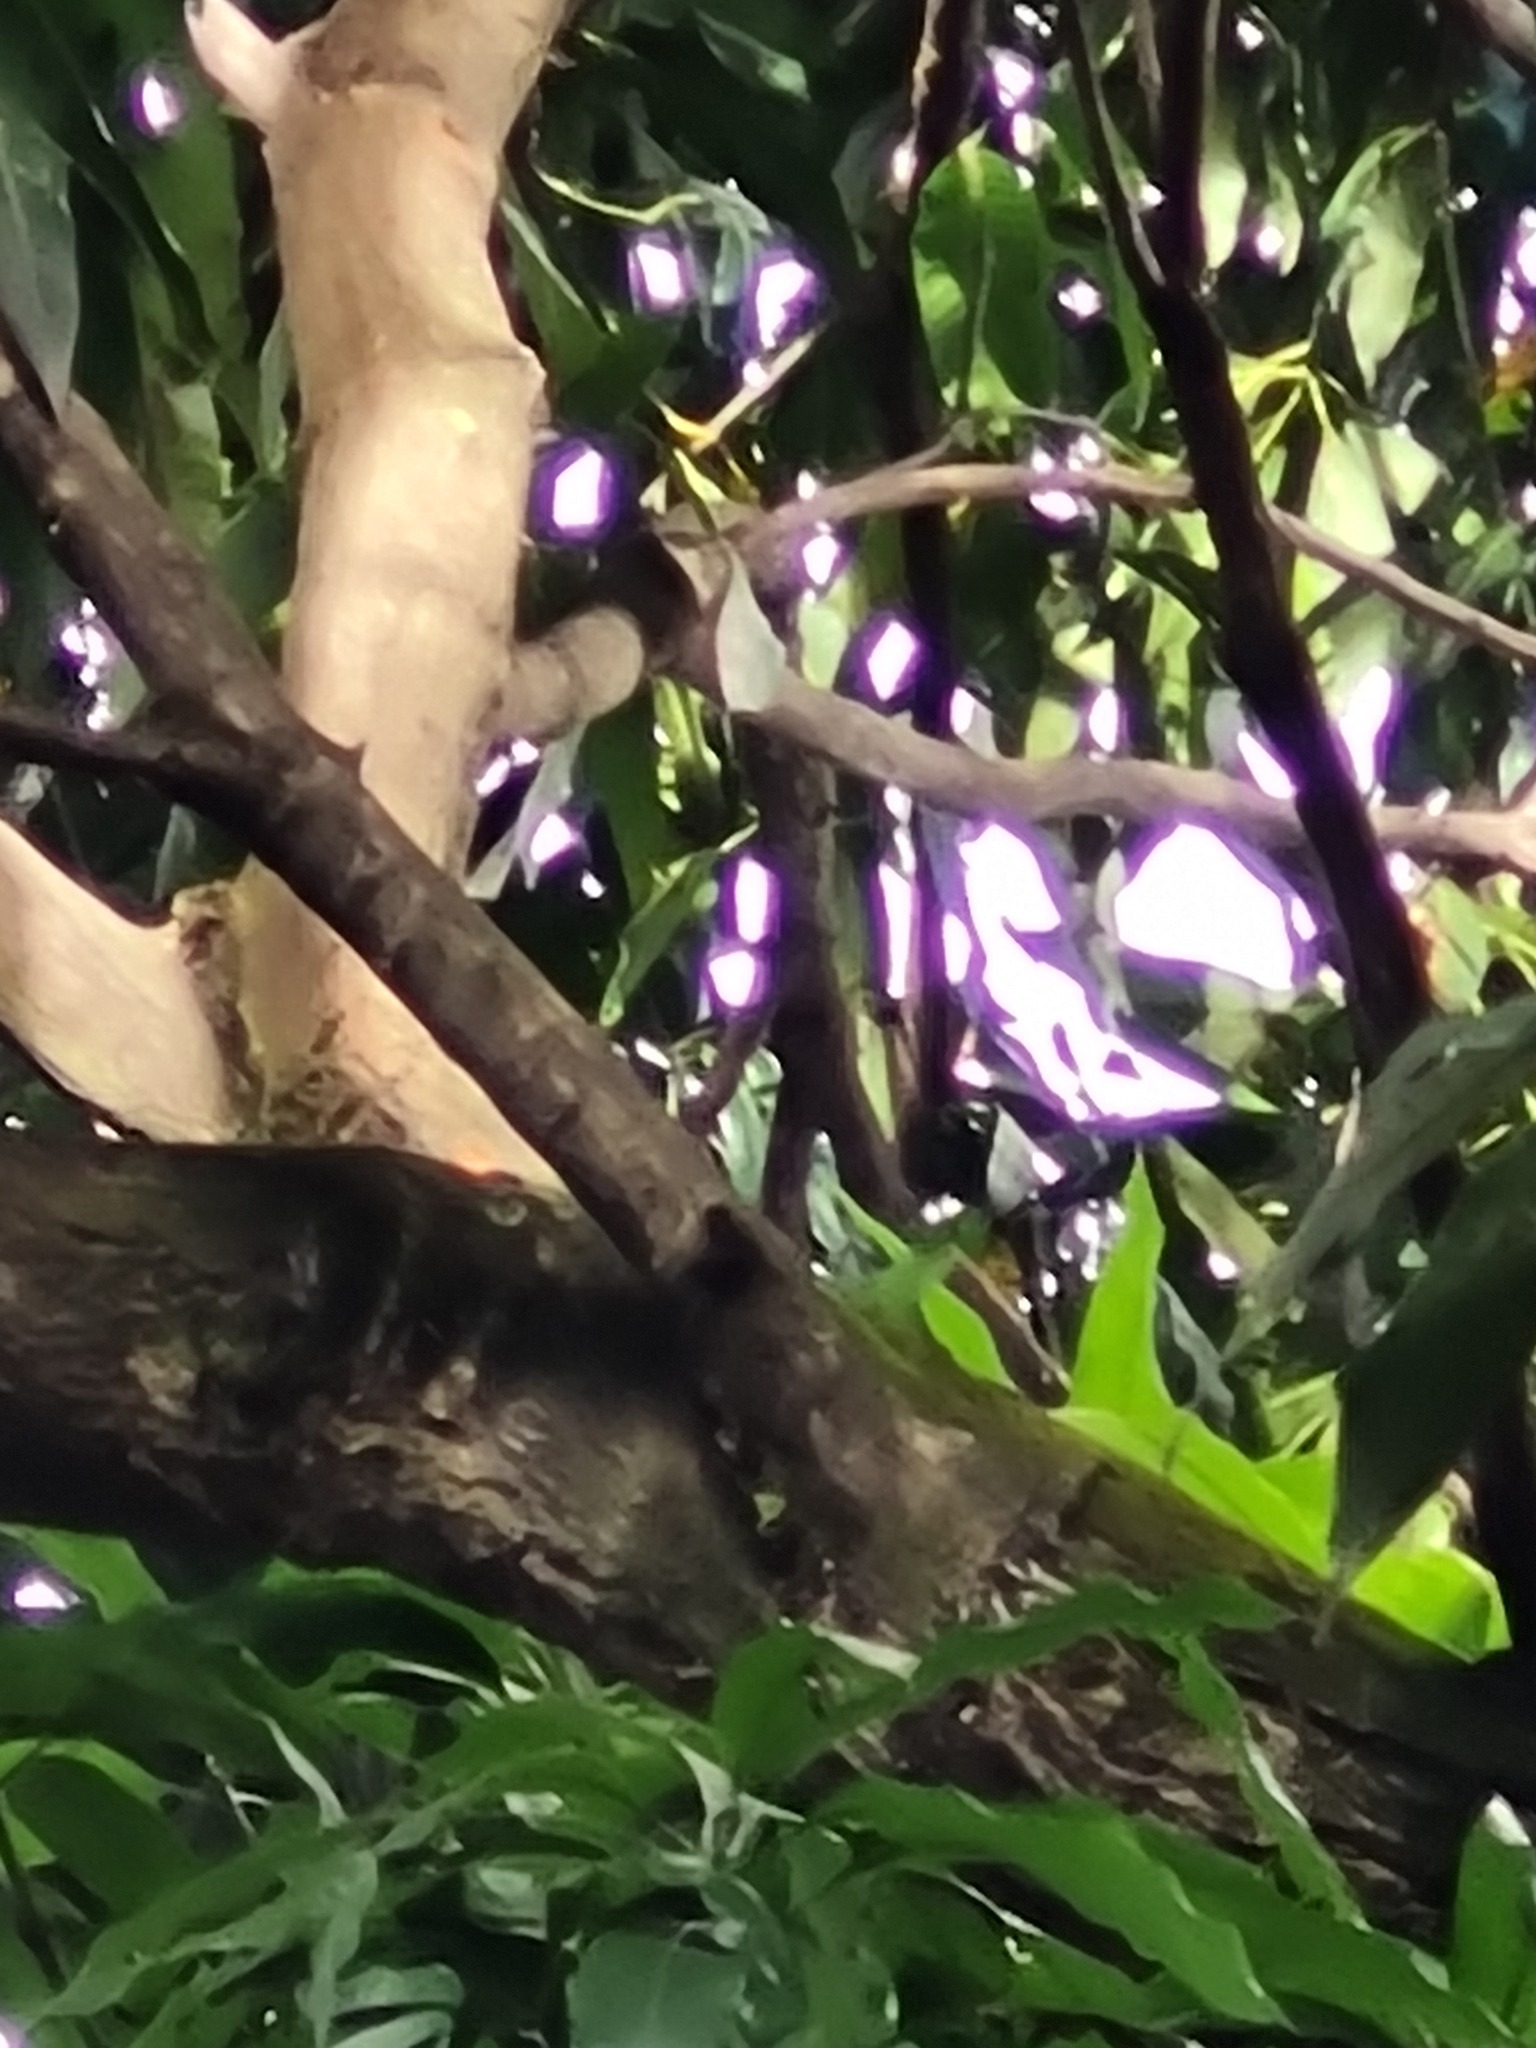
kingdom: Animalia
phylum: Chordata
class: Aves
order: Piciformes
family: Picidae
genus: Celeus
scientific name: Celeus flavescens
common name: Blond-crested woodpecker
